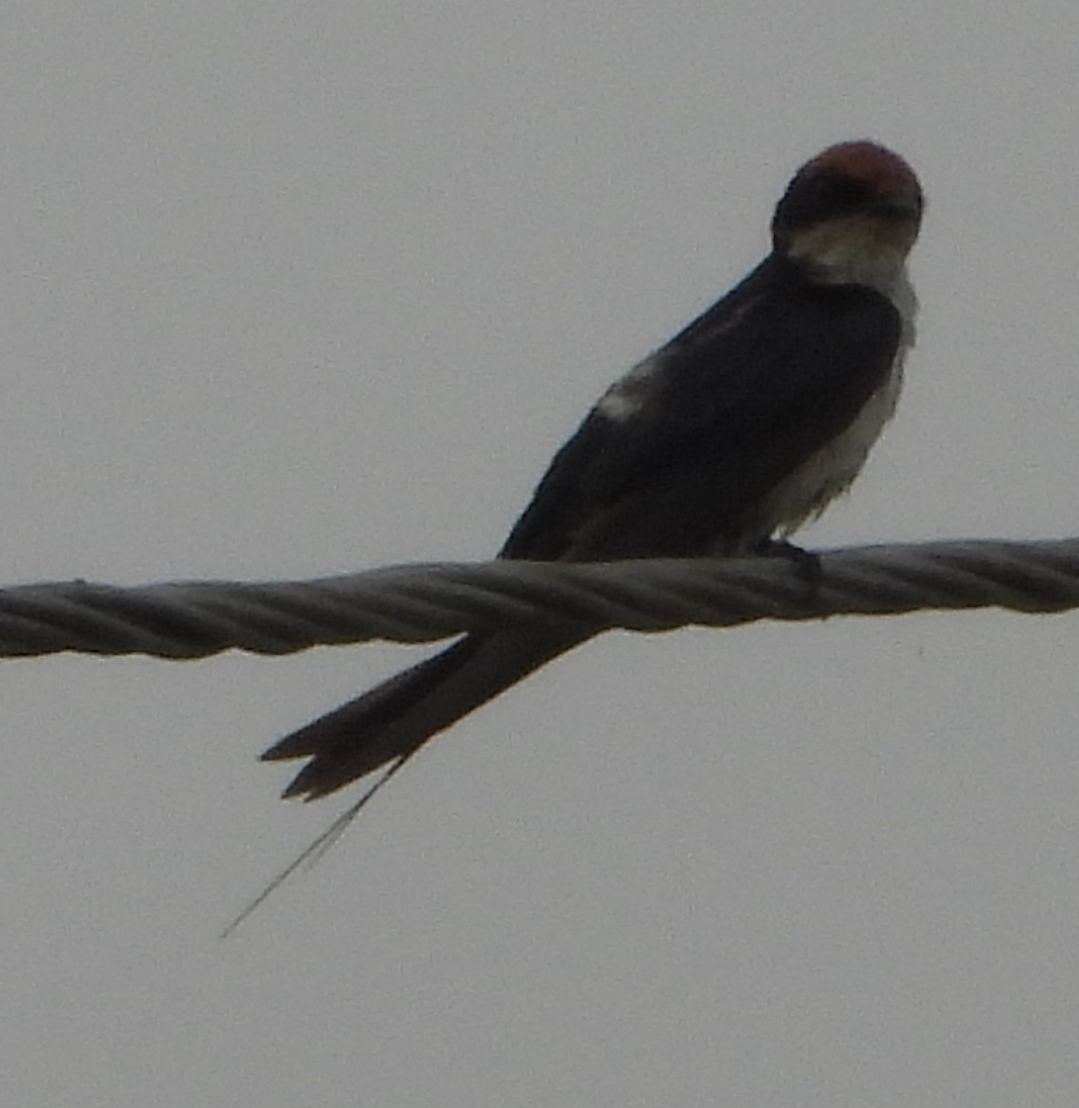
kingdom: Animalia
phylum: Chordata
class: Aves
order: Passeriformes
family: Hirundinidae
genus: Hirundo
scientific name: Hirundo smithii
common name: Wire-tailed swallow
